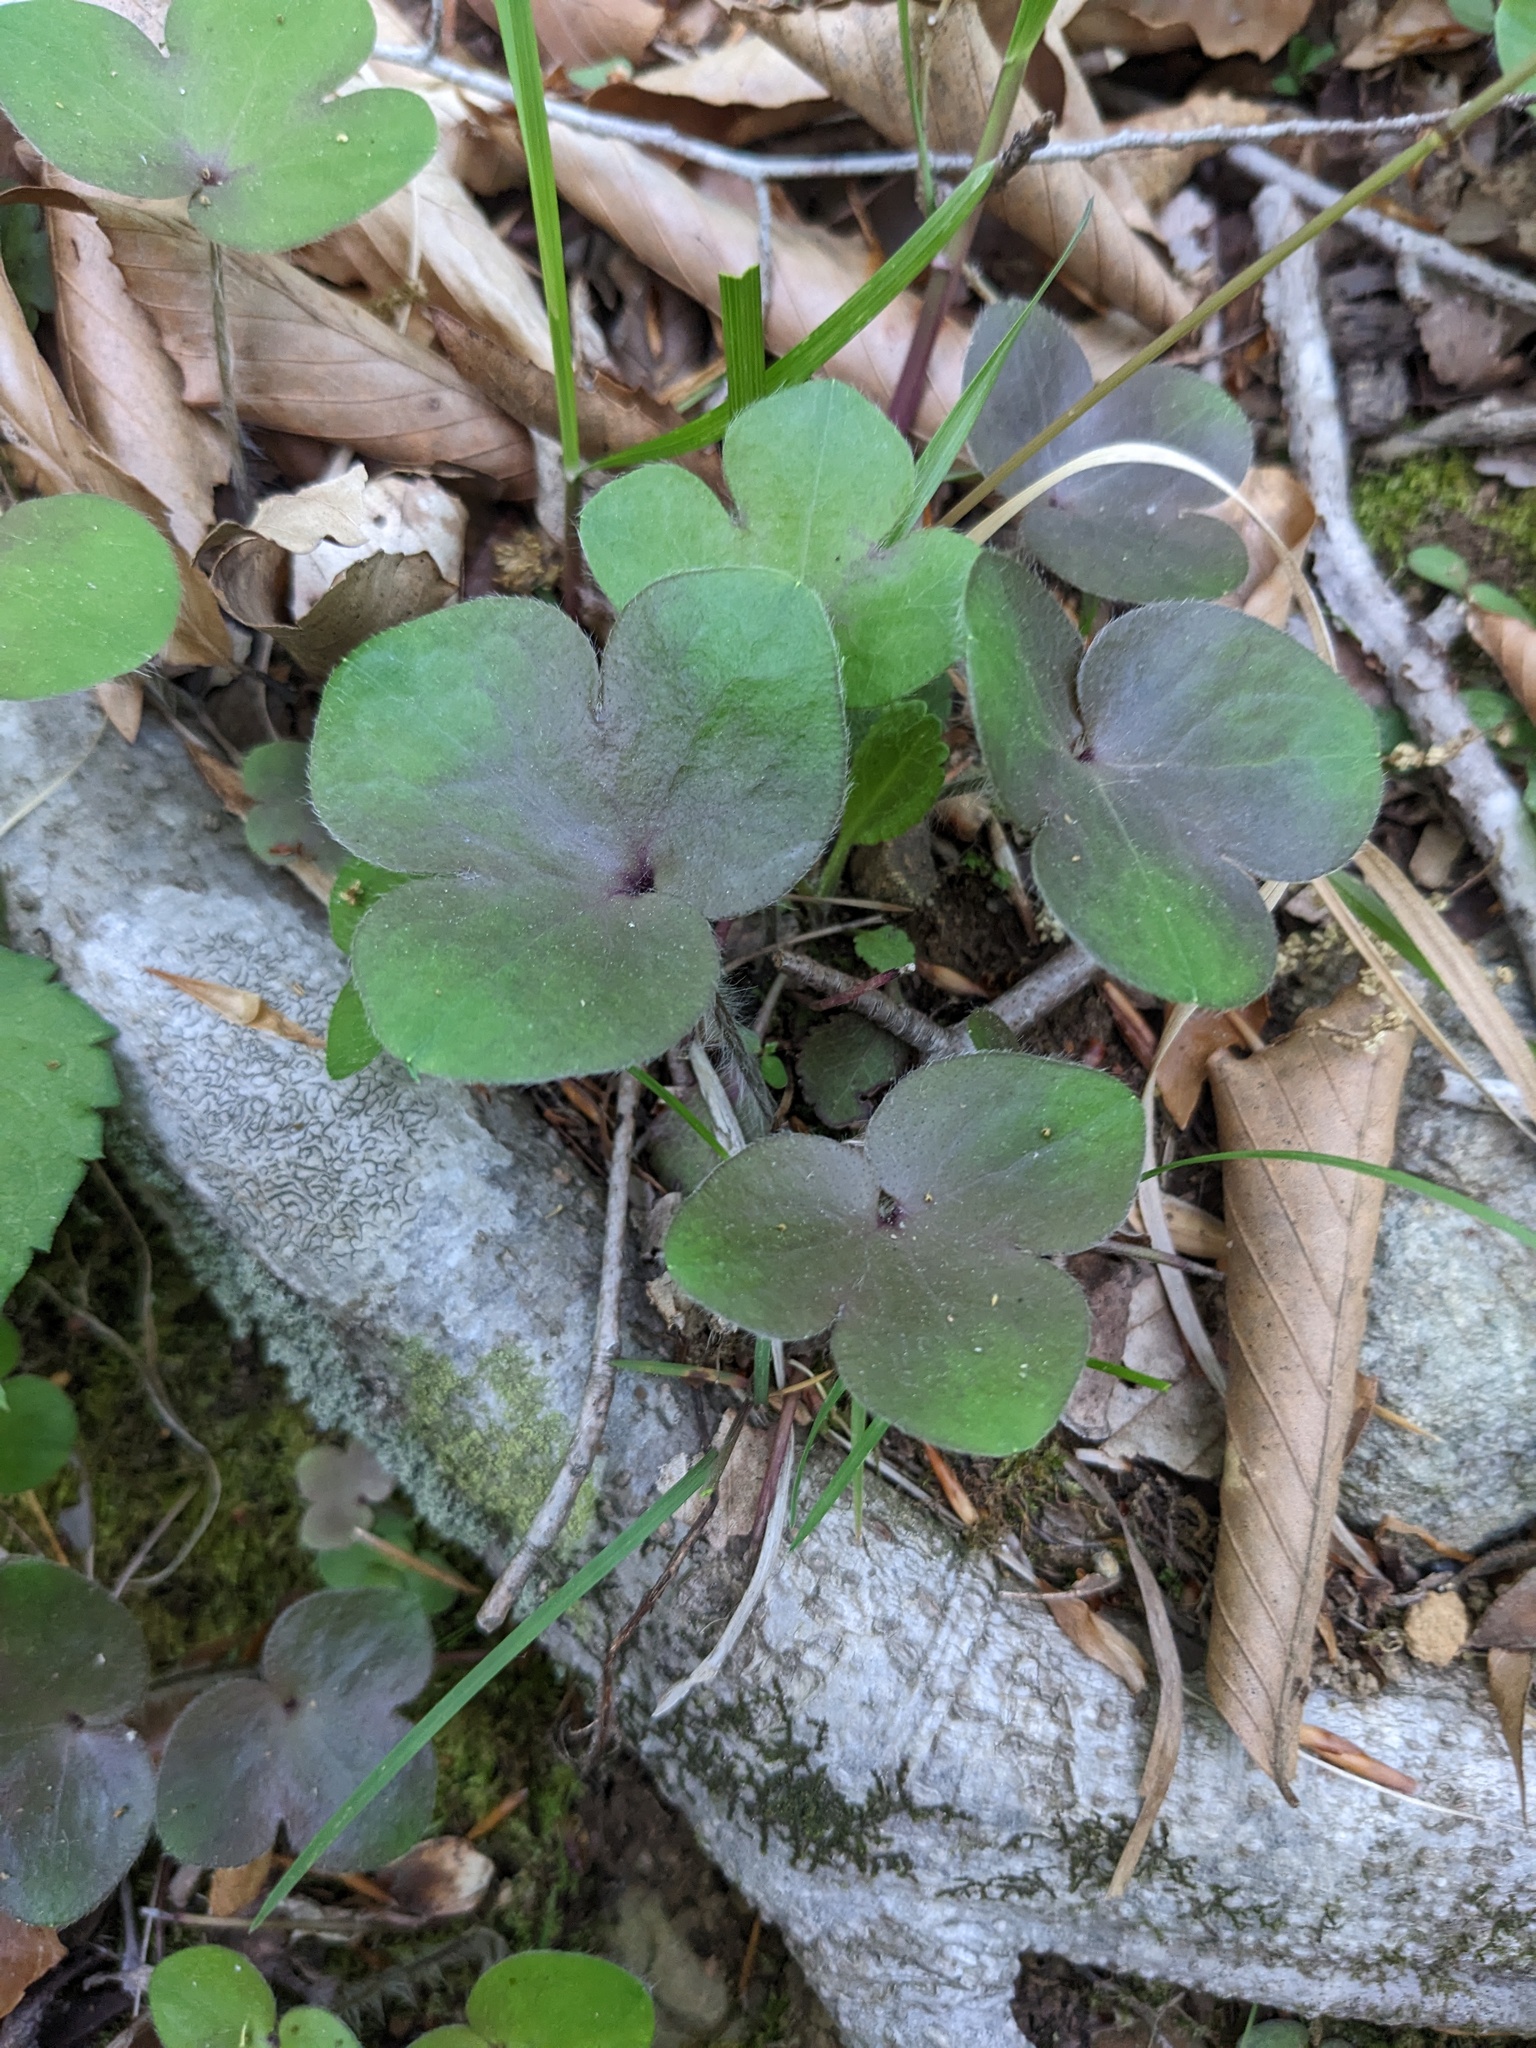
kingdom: Plantae
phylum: Tracheophyta
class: Magnoliopsida
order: Ranunculales
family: Ranunculaceae
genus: Hepatica
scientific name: Hepatica americana
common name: American hepatica
